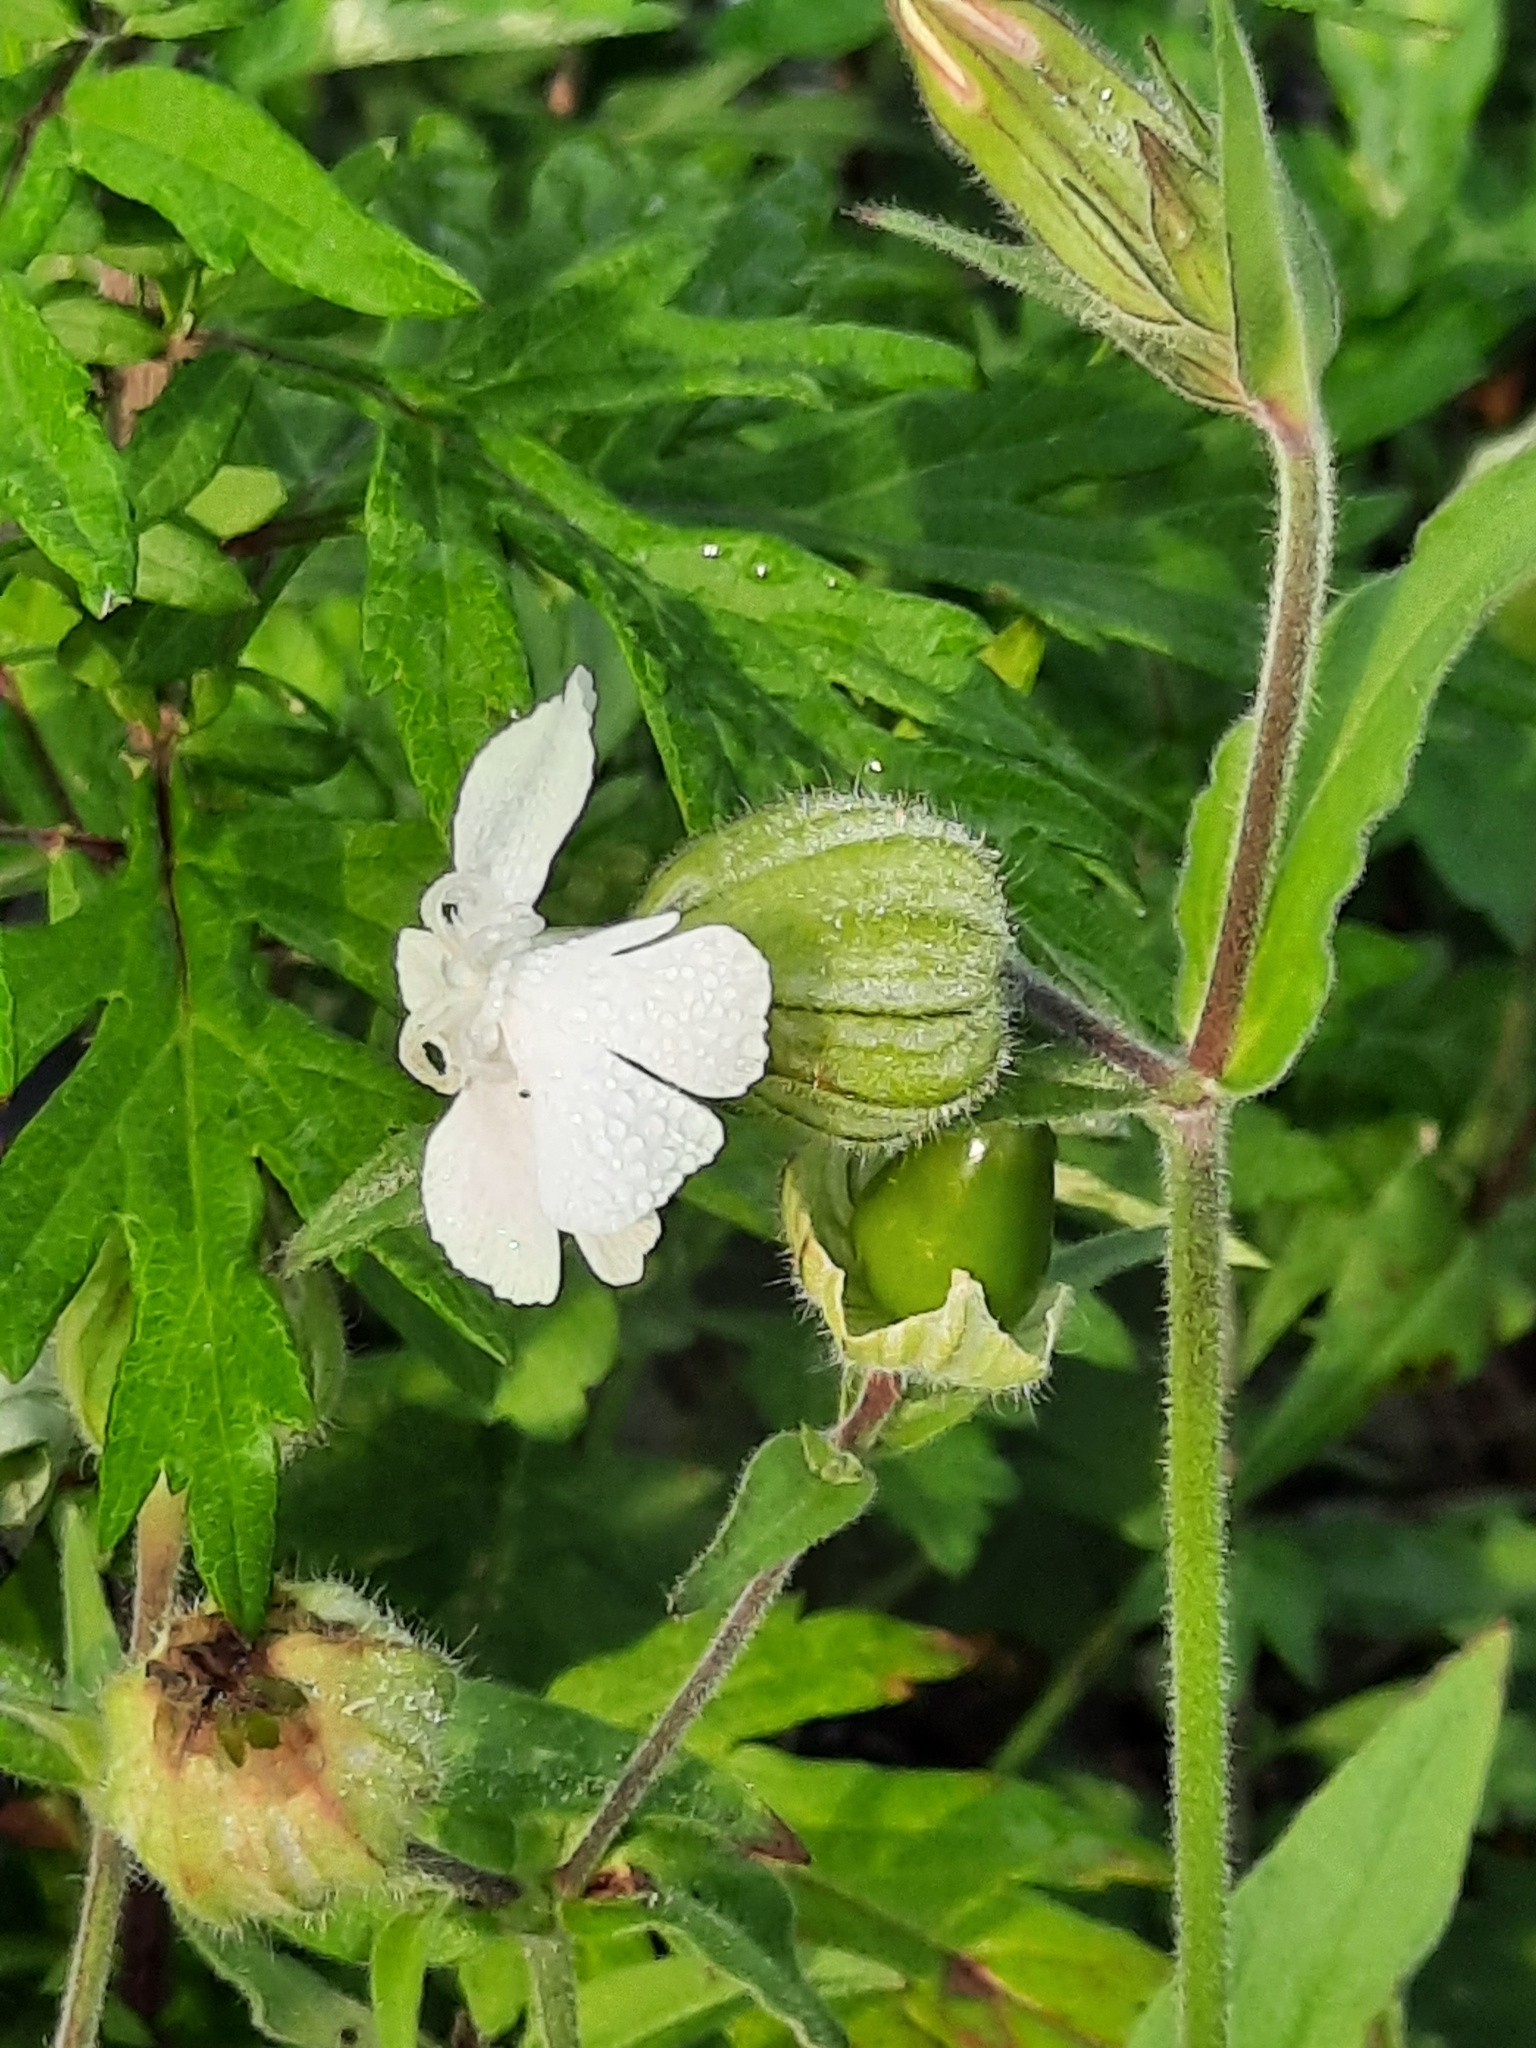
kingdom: Plantae
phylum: Tracheophyta
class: Magnoliopsida
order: Caryophyllales
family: Caryophyllaceae
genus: Silene
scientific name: Silene latifolia
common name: White campion
